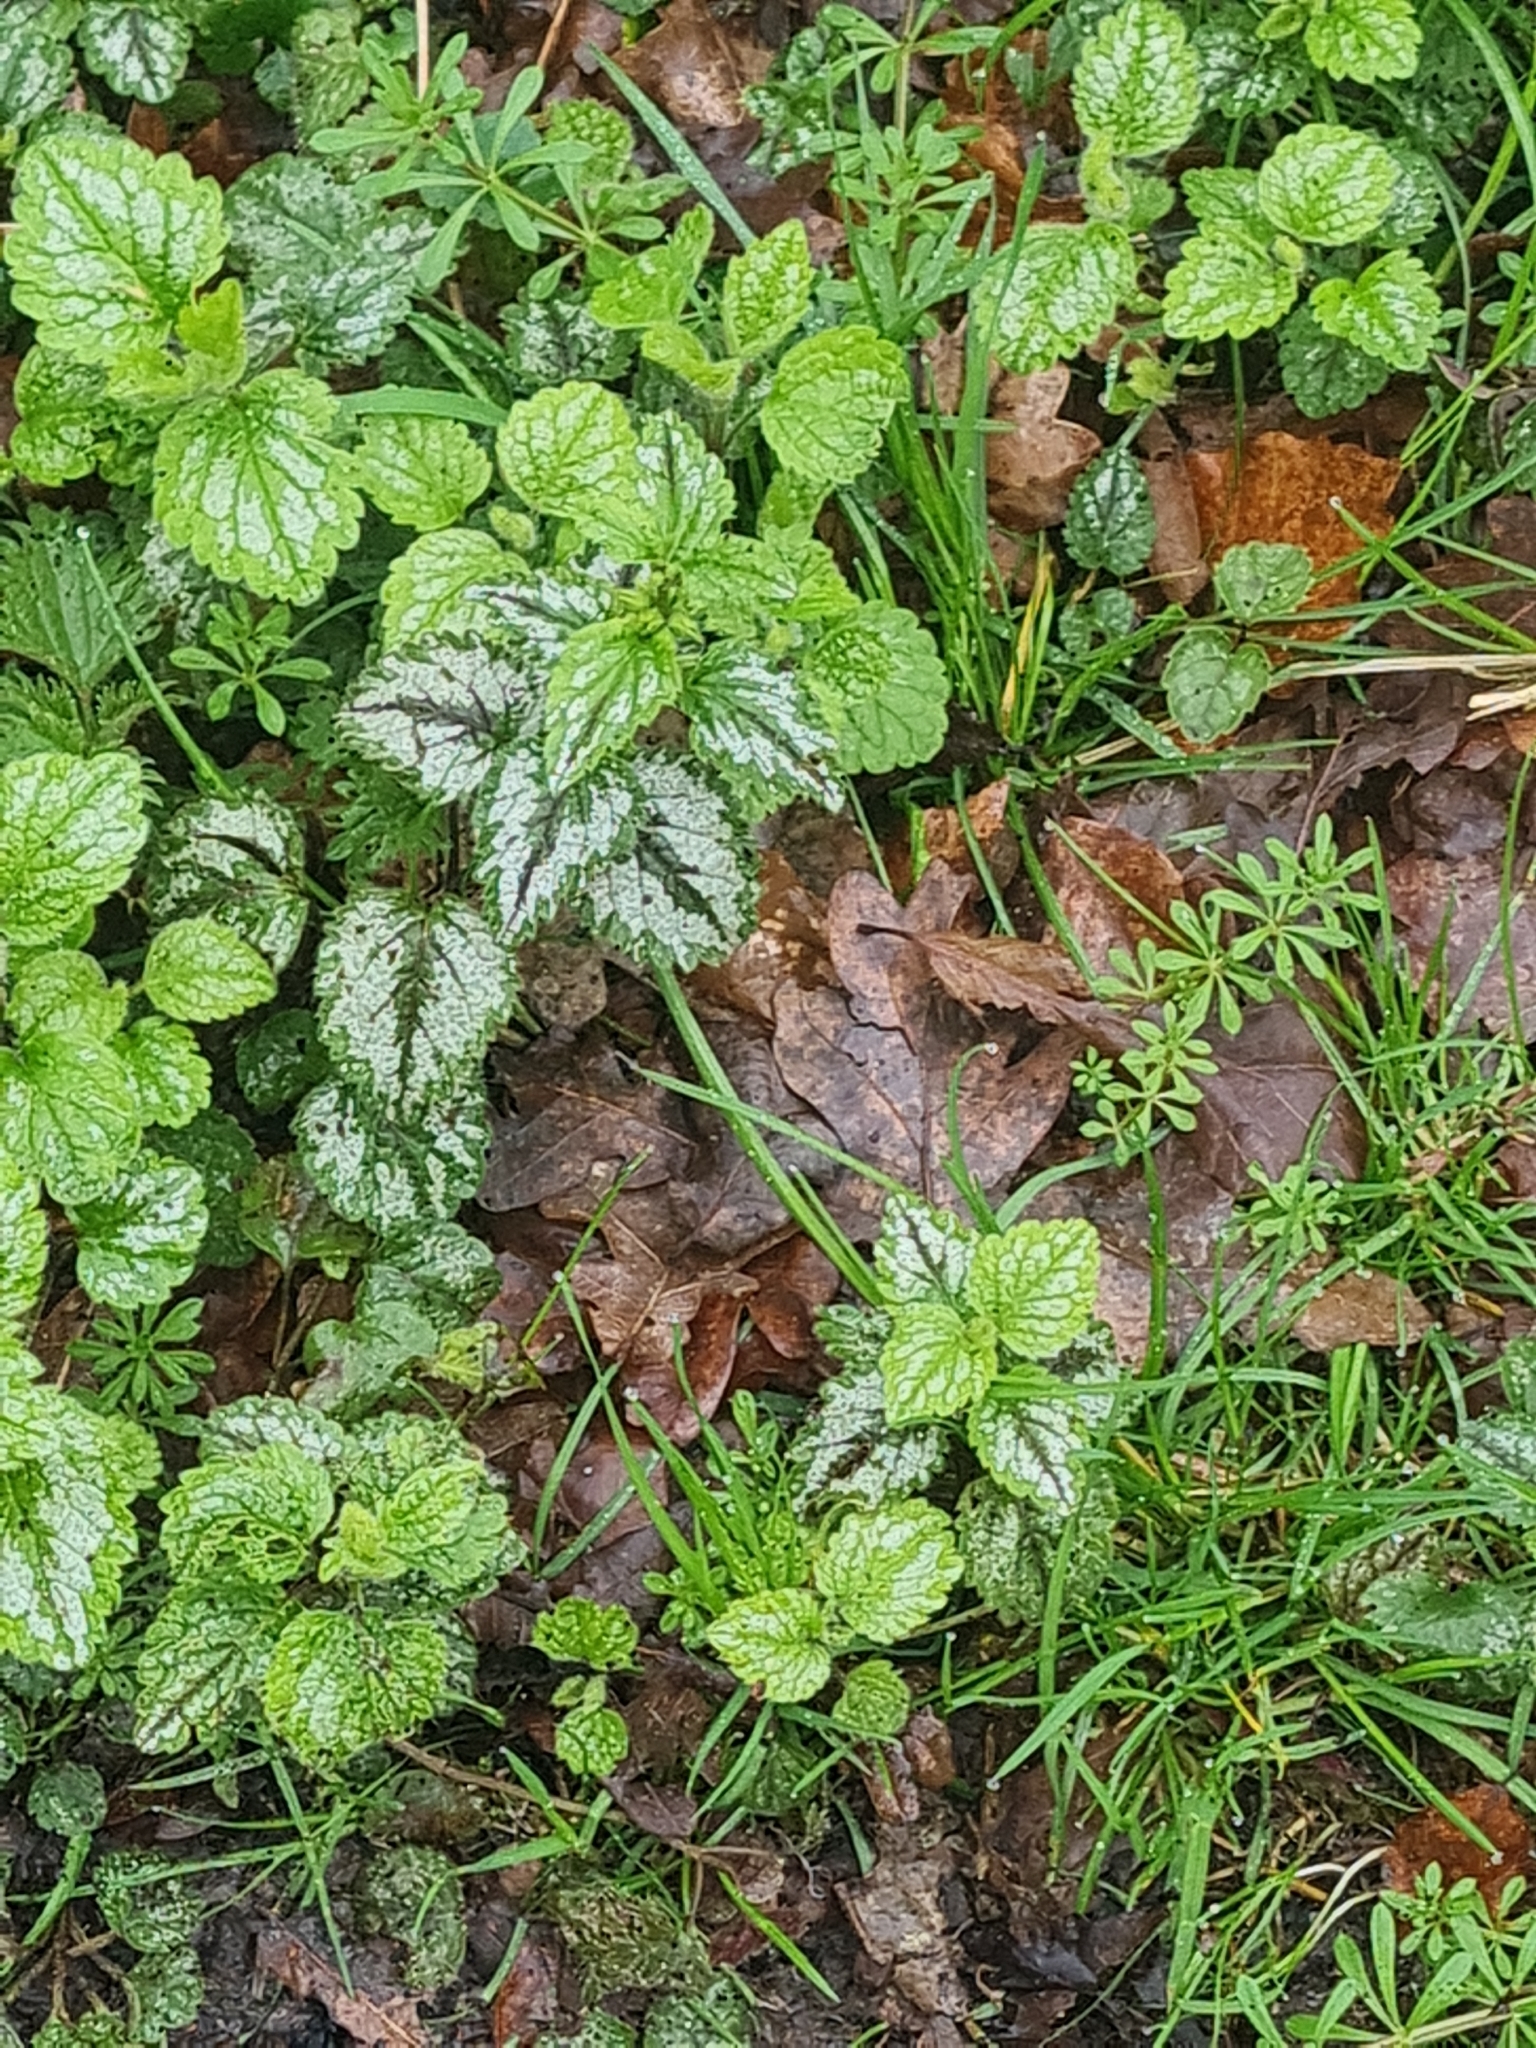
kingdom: Plantae
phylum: Tracheophyta
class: Magnoliopsida
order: Lamiales
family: Lamiaceae
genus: Lamium
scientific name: Lamium galeobdolon
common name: Yellow archangel
